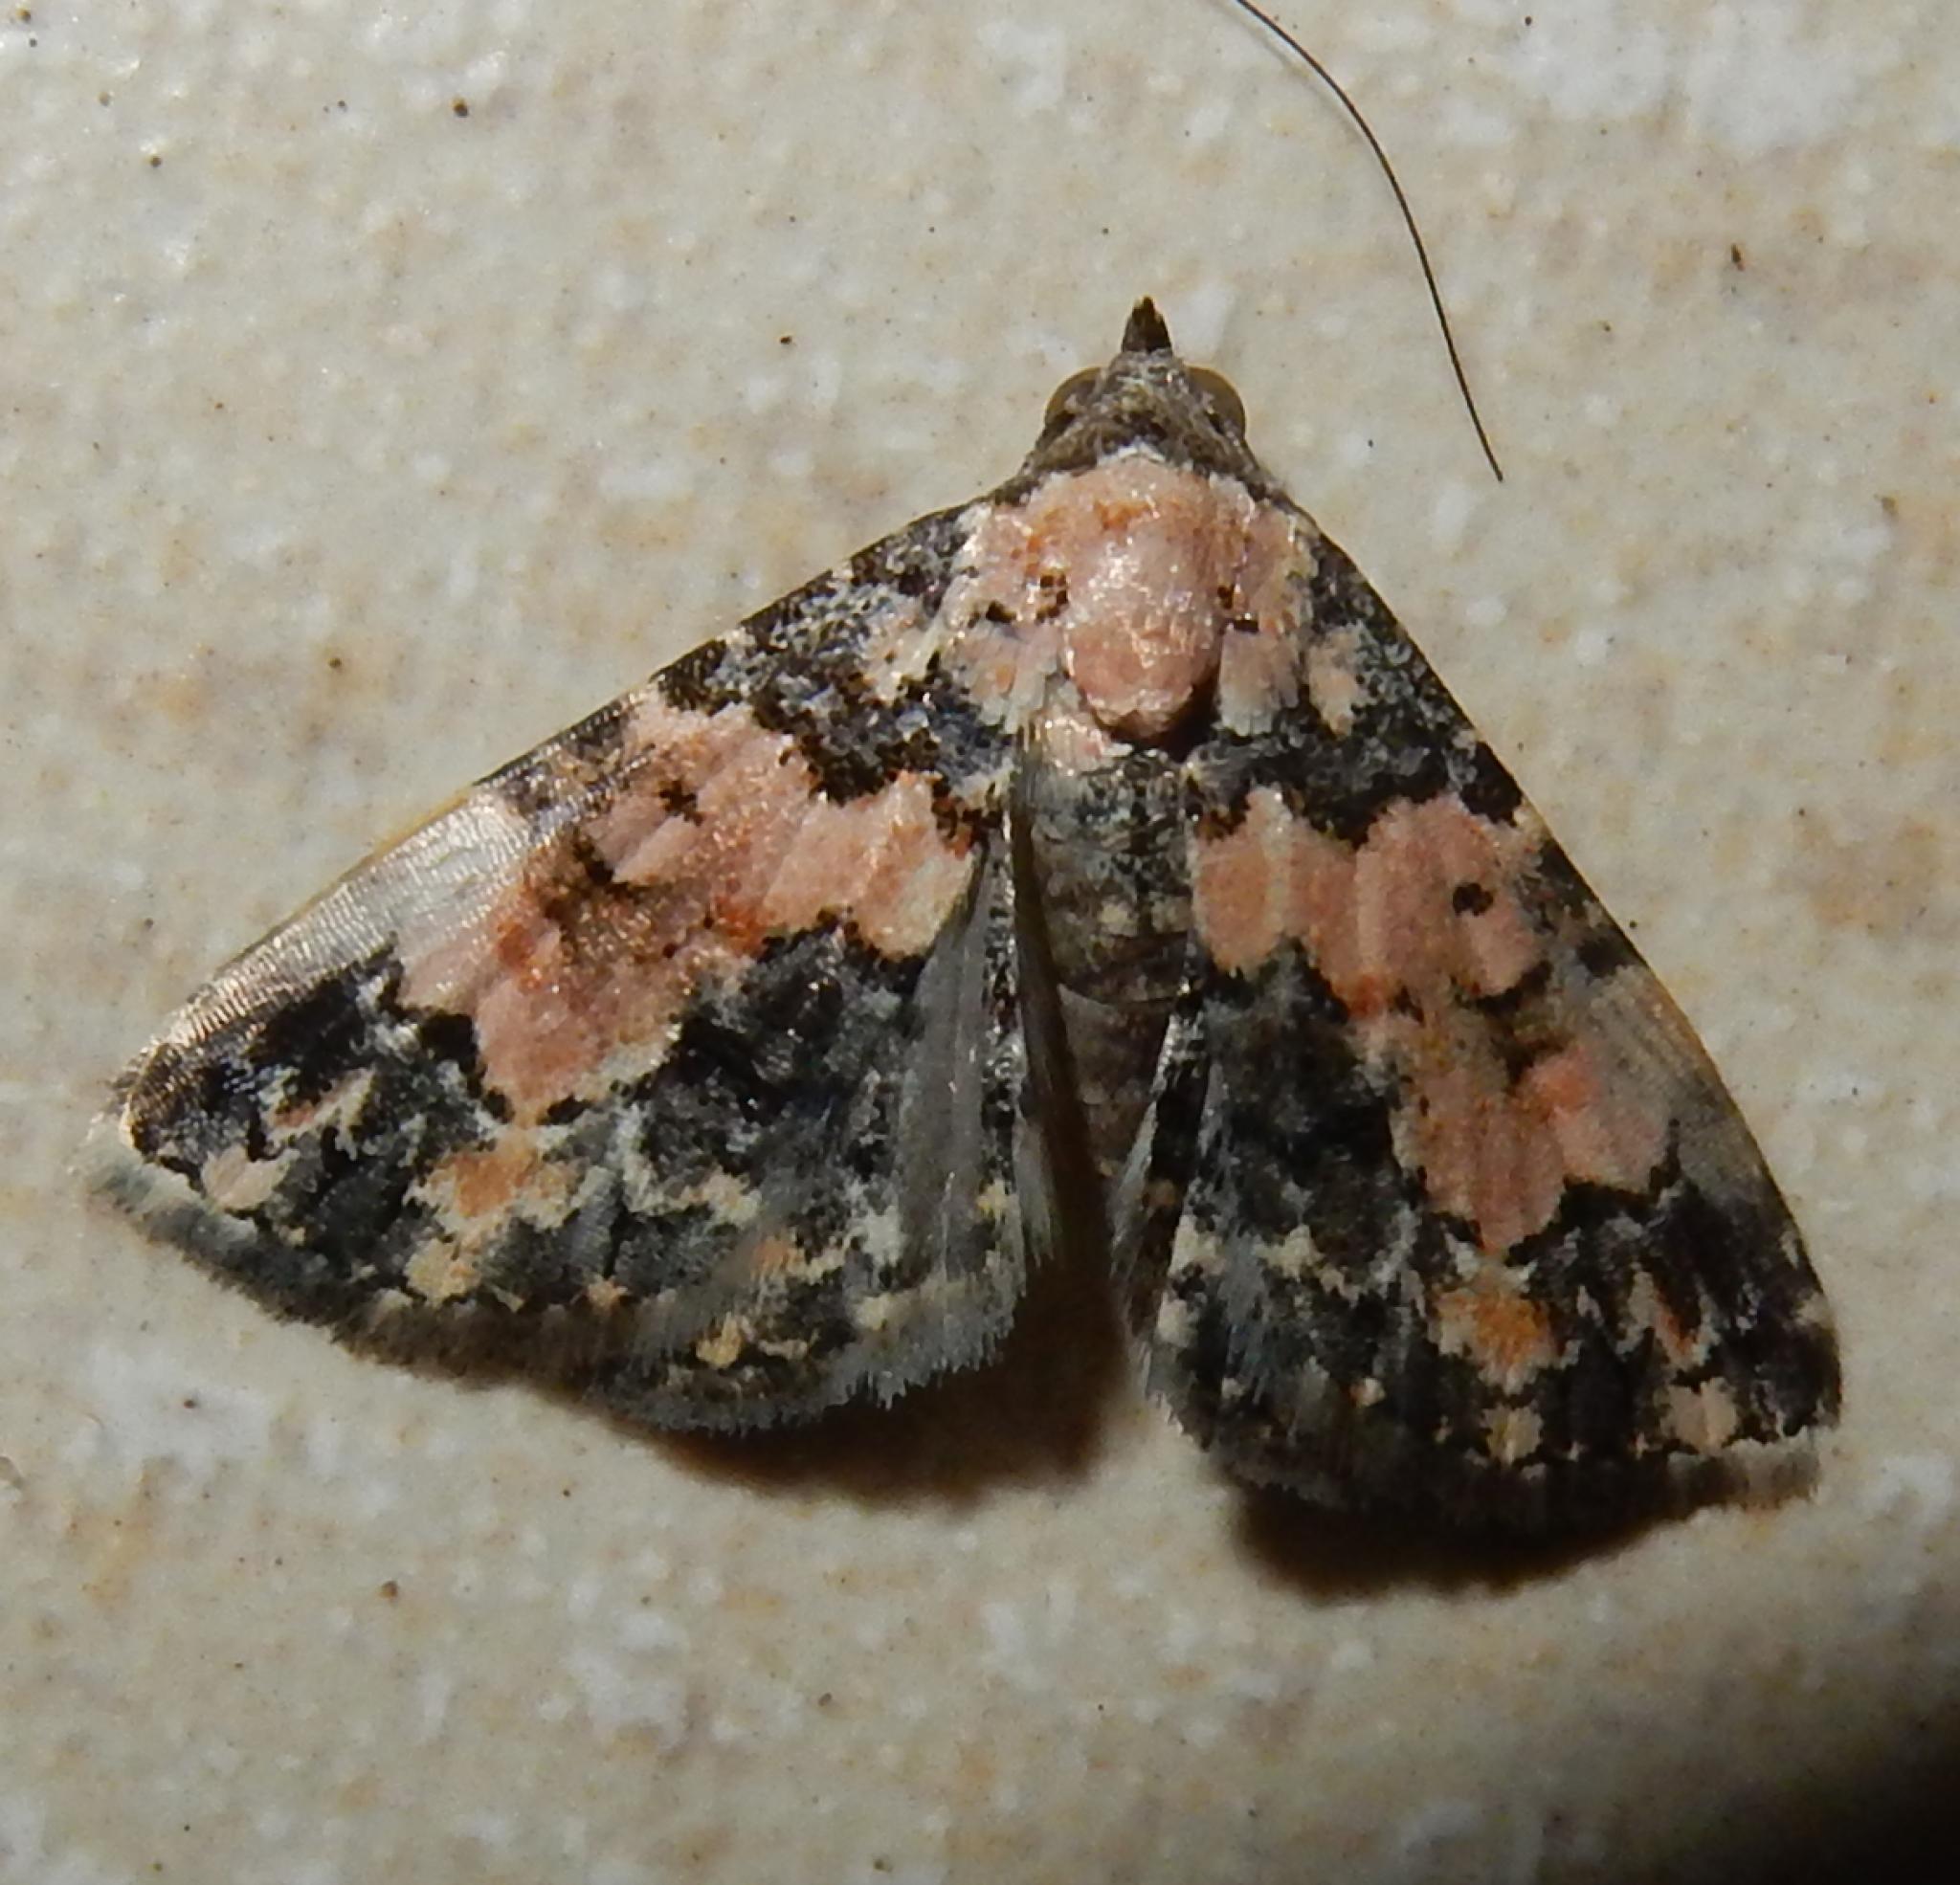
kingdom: Animalia
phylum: Arthropoda
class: Insecta
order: Lepidoptera
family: Noctuidae
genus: Eublemma
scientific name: Eublemma decora
